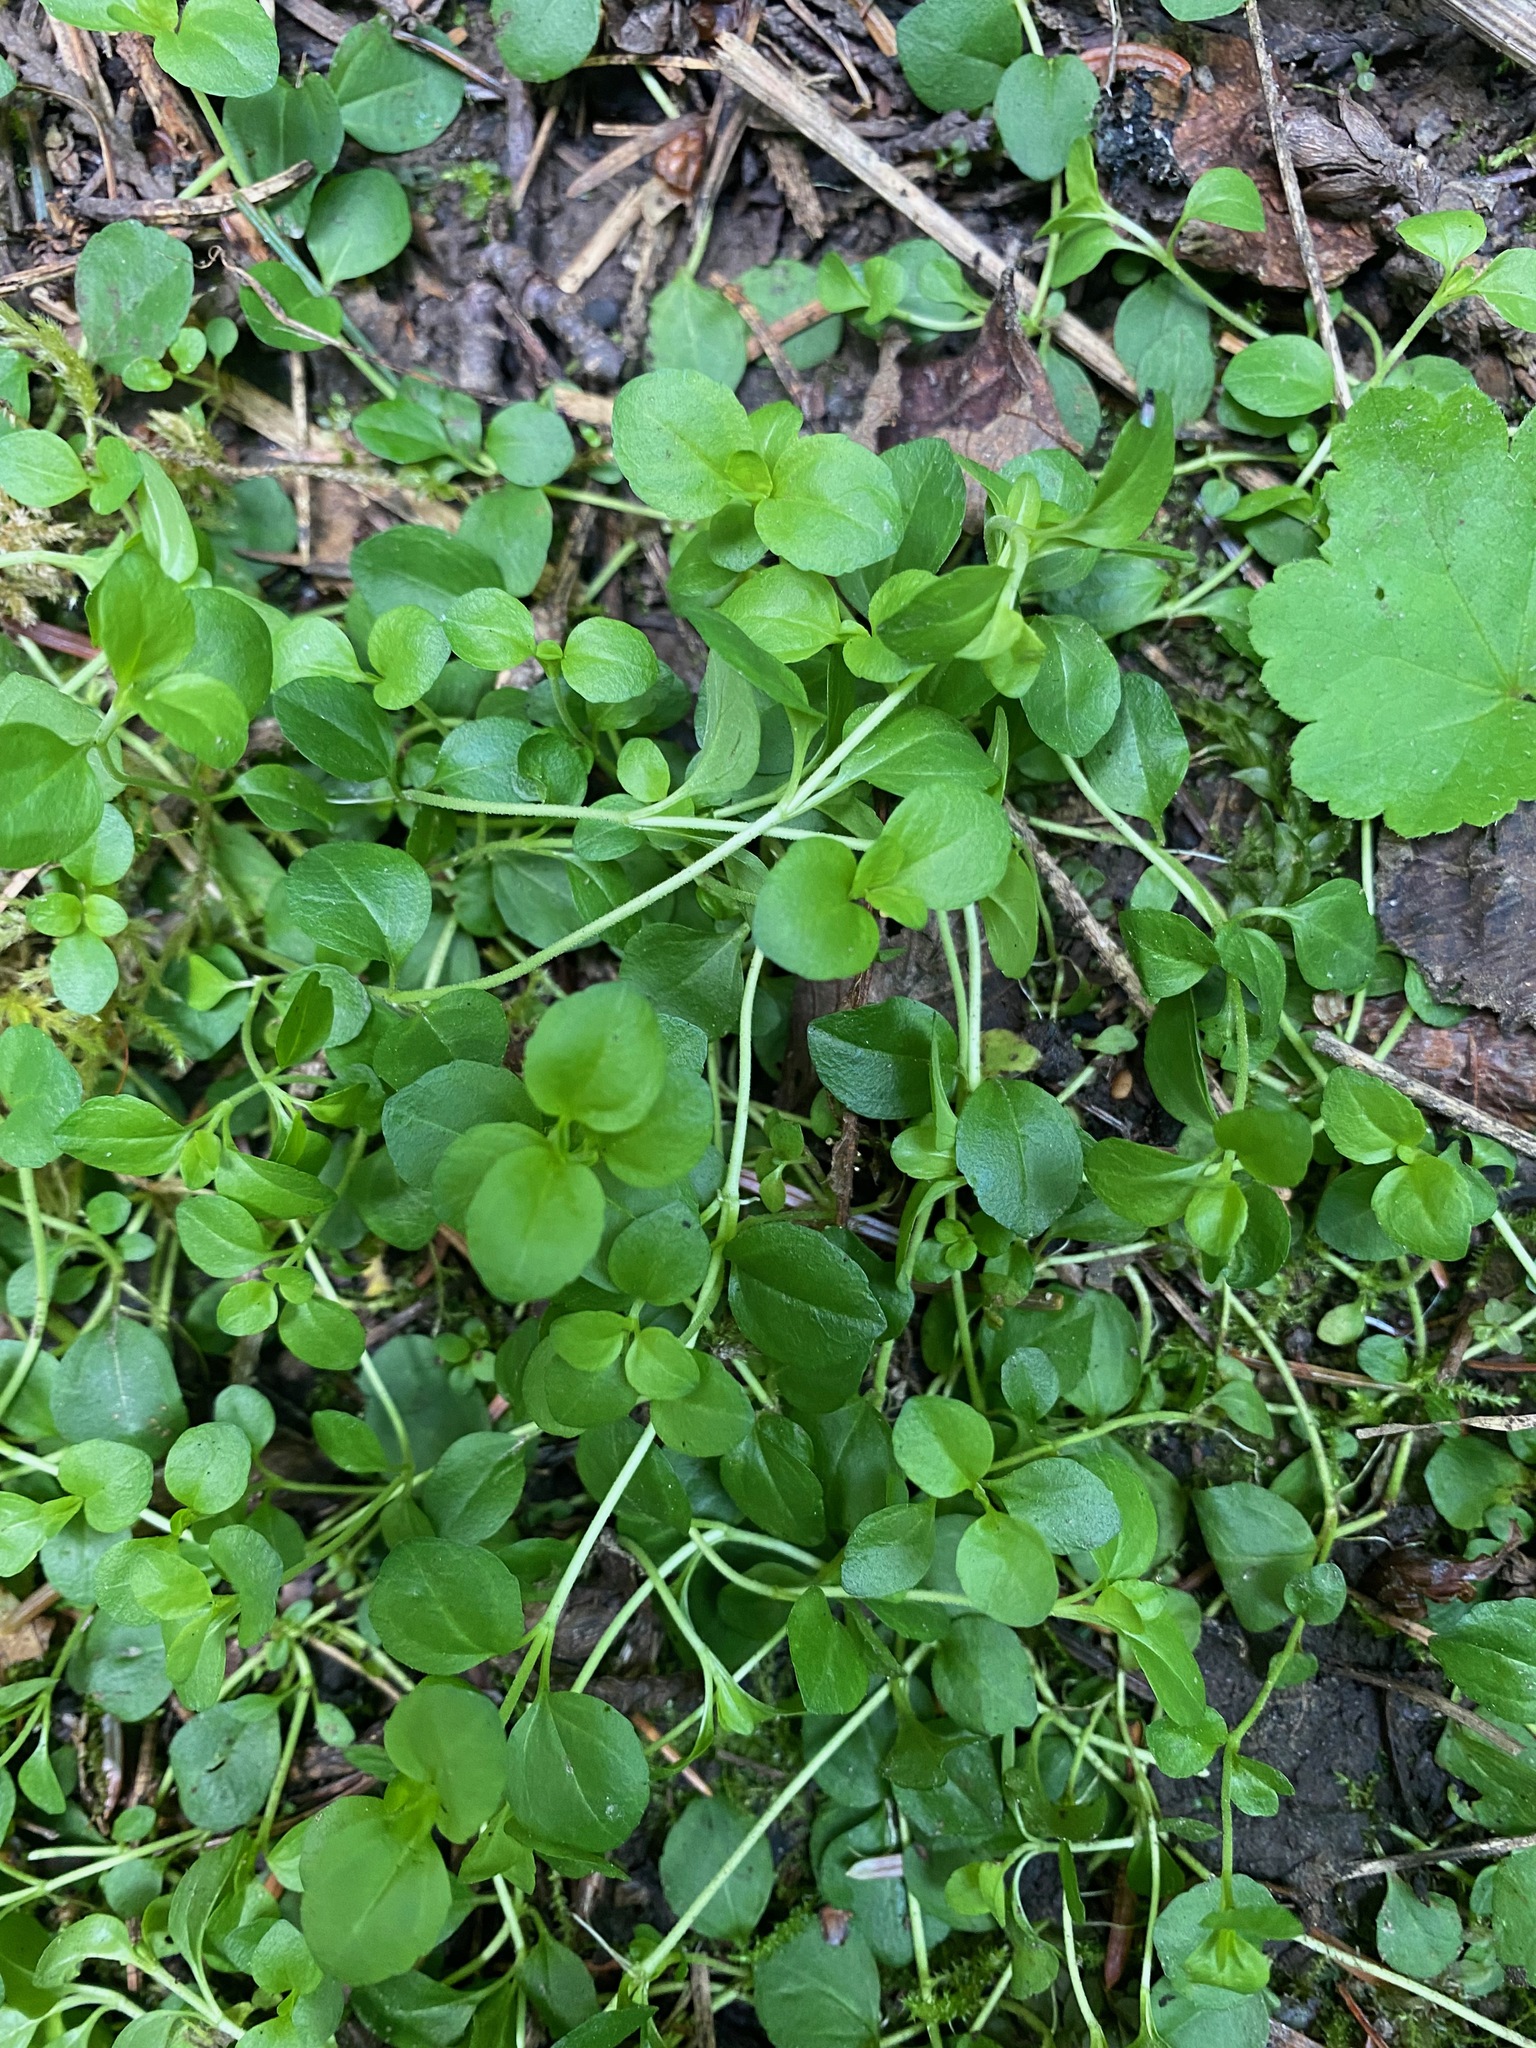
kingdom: Plantae
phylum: Tracheophyta
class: Magnoliopsida
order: Dipsacales
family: Caprifoliaceae
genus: Linnaea
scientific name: Linnaea borealis
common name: Twinflower
